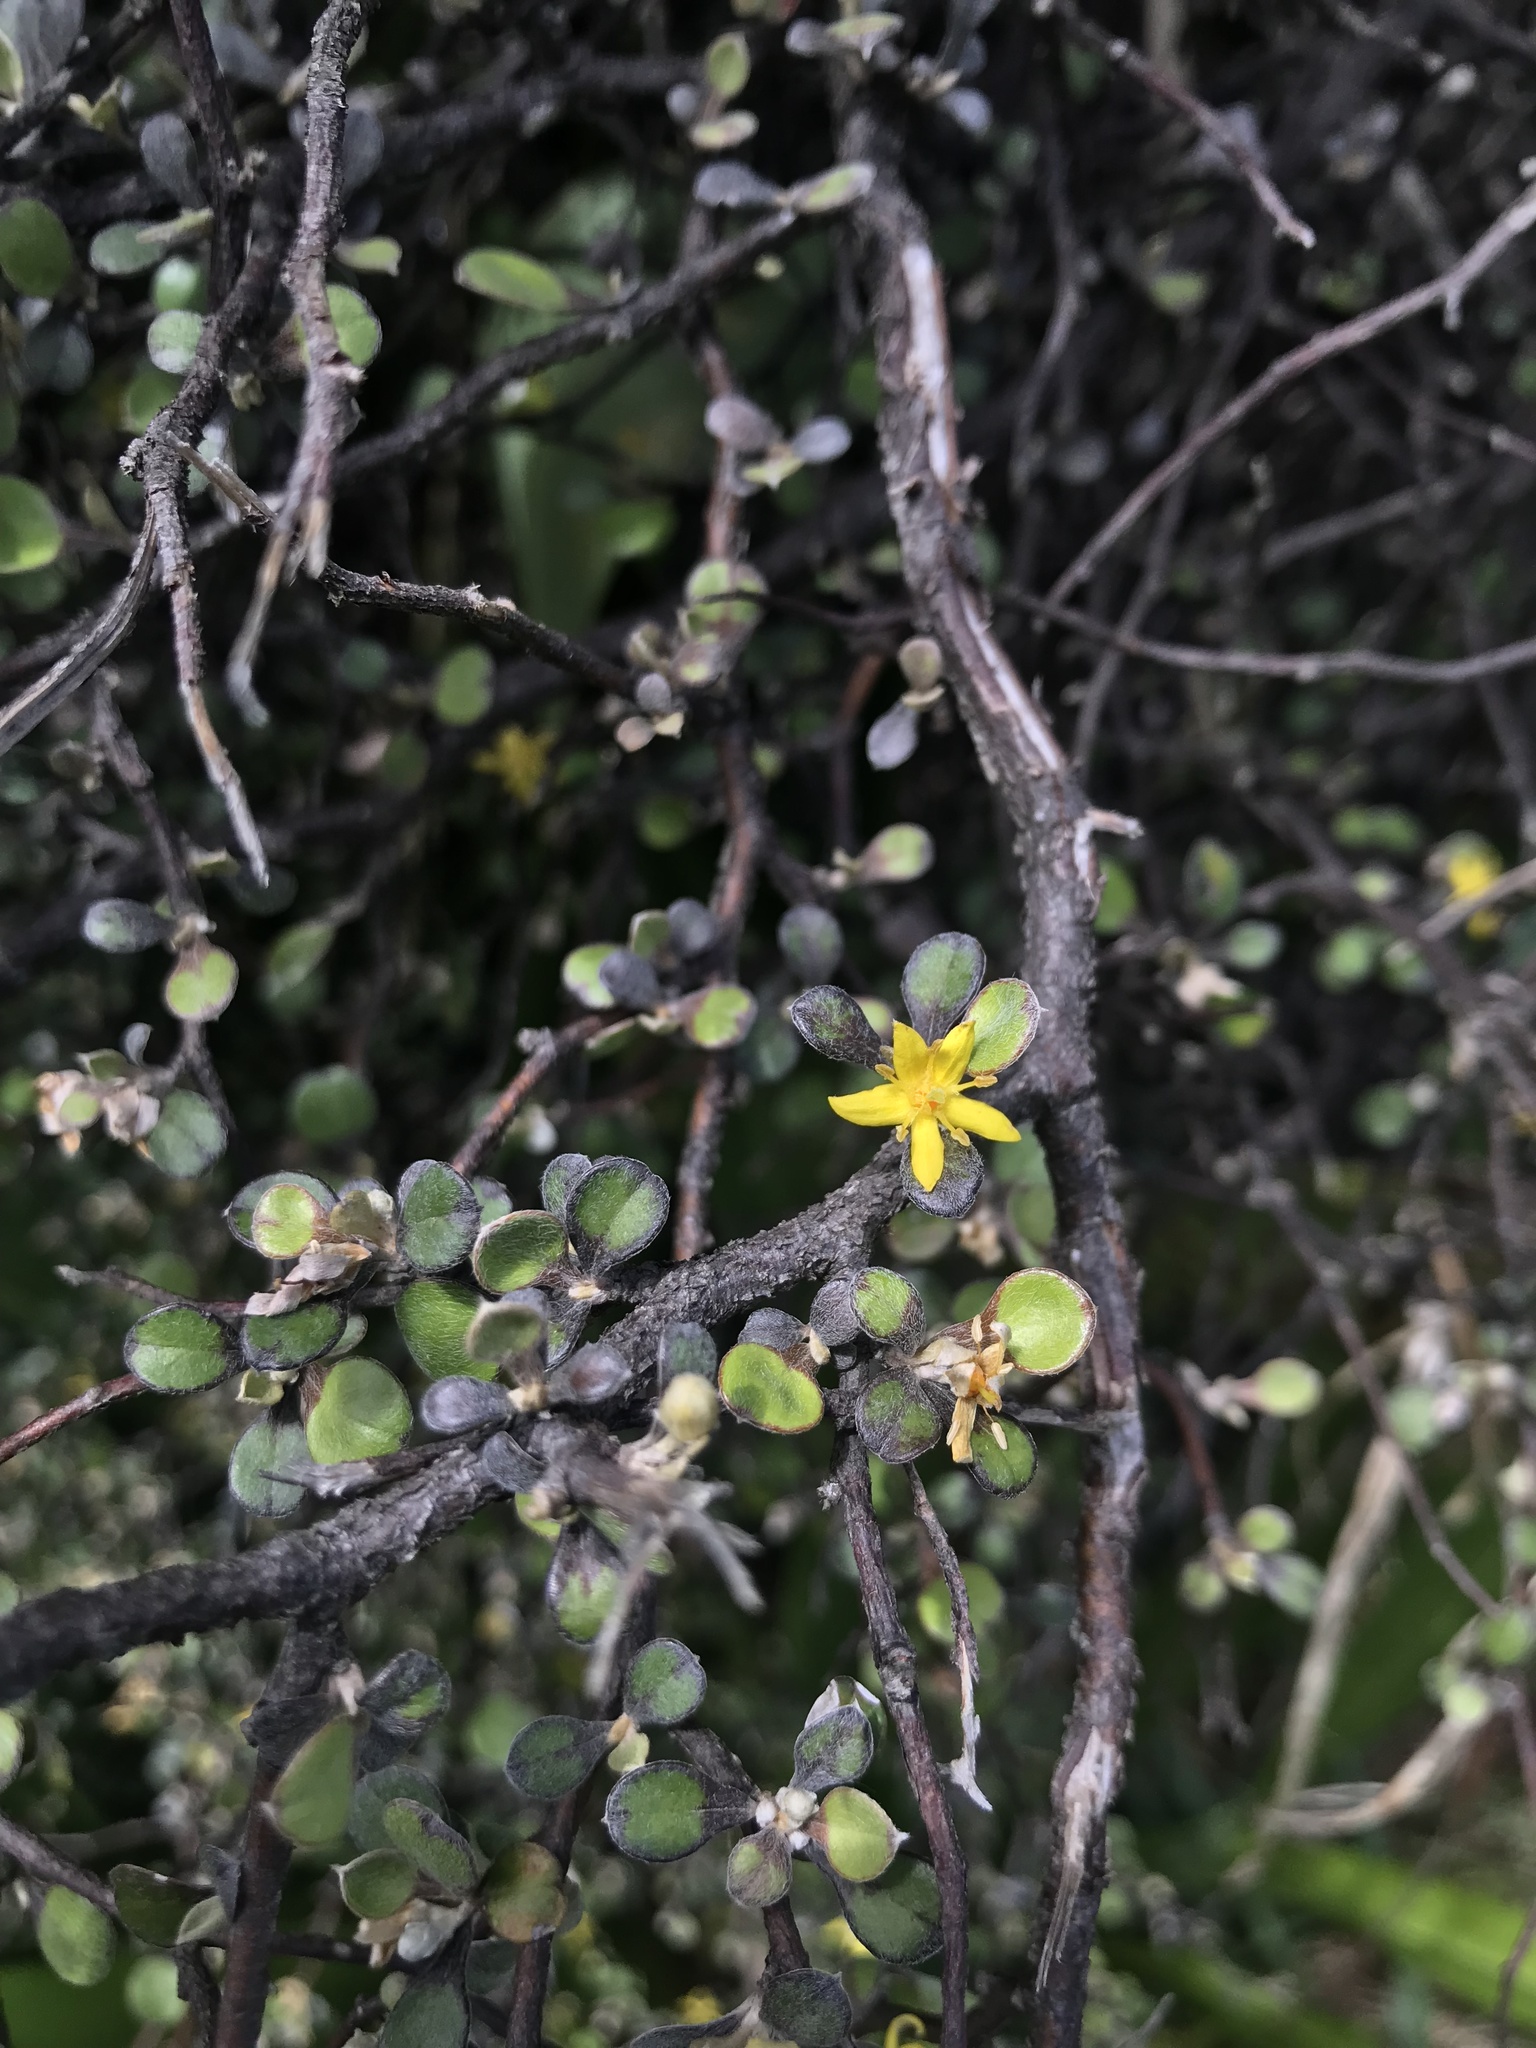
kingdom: Plantae
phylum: Tracheophyta
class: Magnoliopsida
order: Asterales
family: Argophyllaceae
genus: Corokia
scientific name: Corokia cotoneaster
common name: Wire nettingbush
